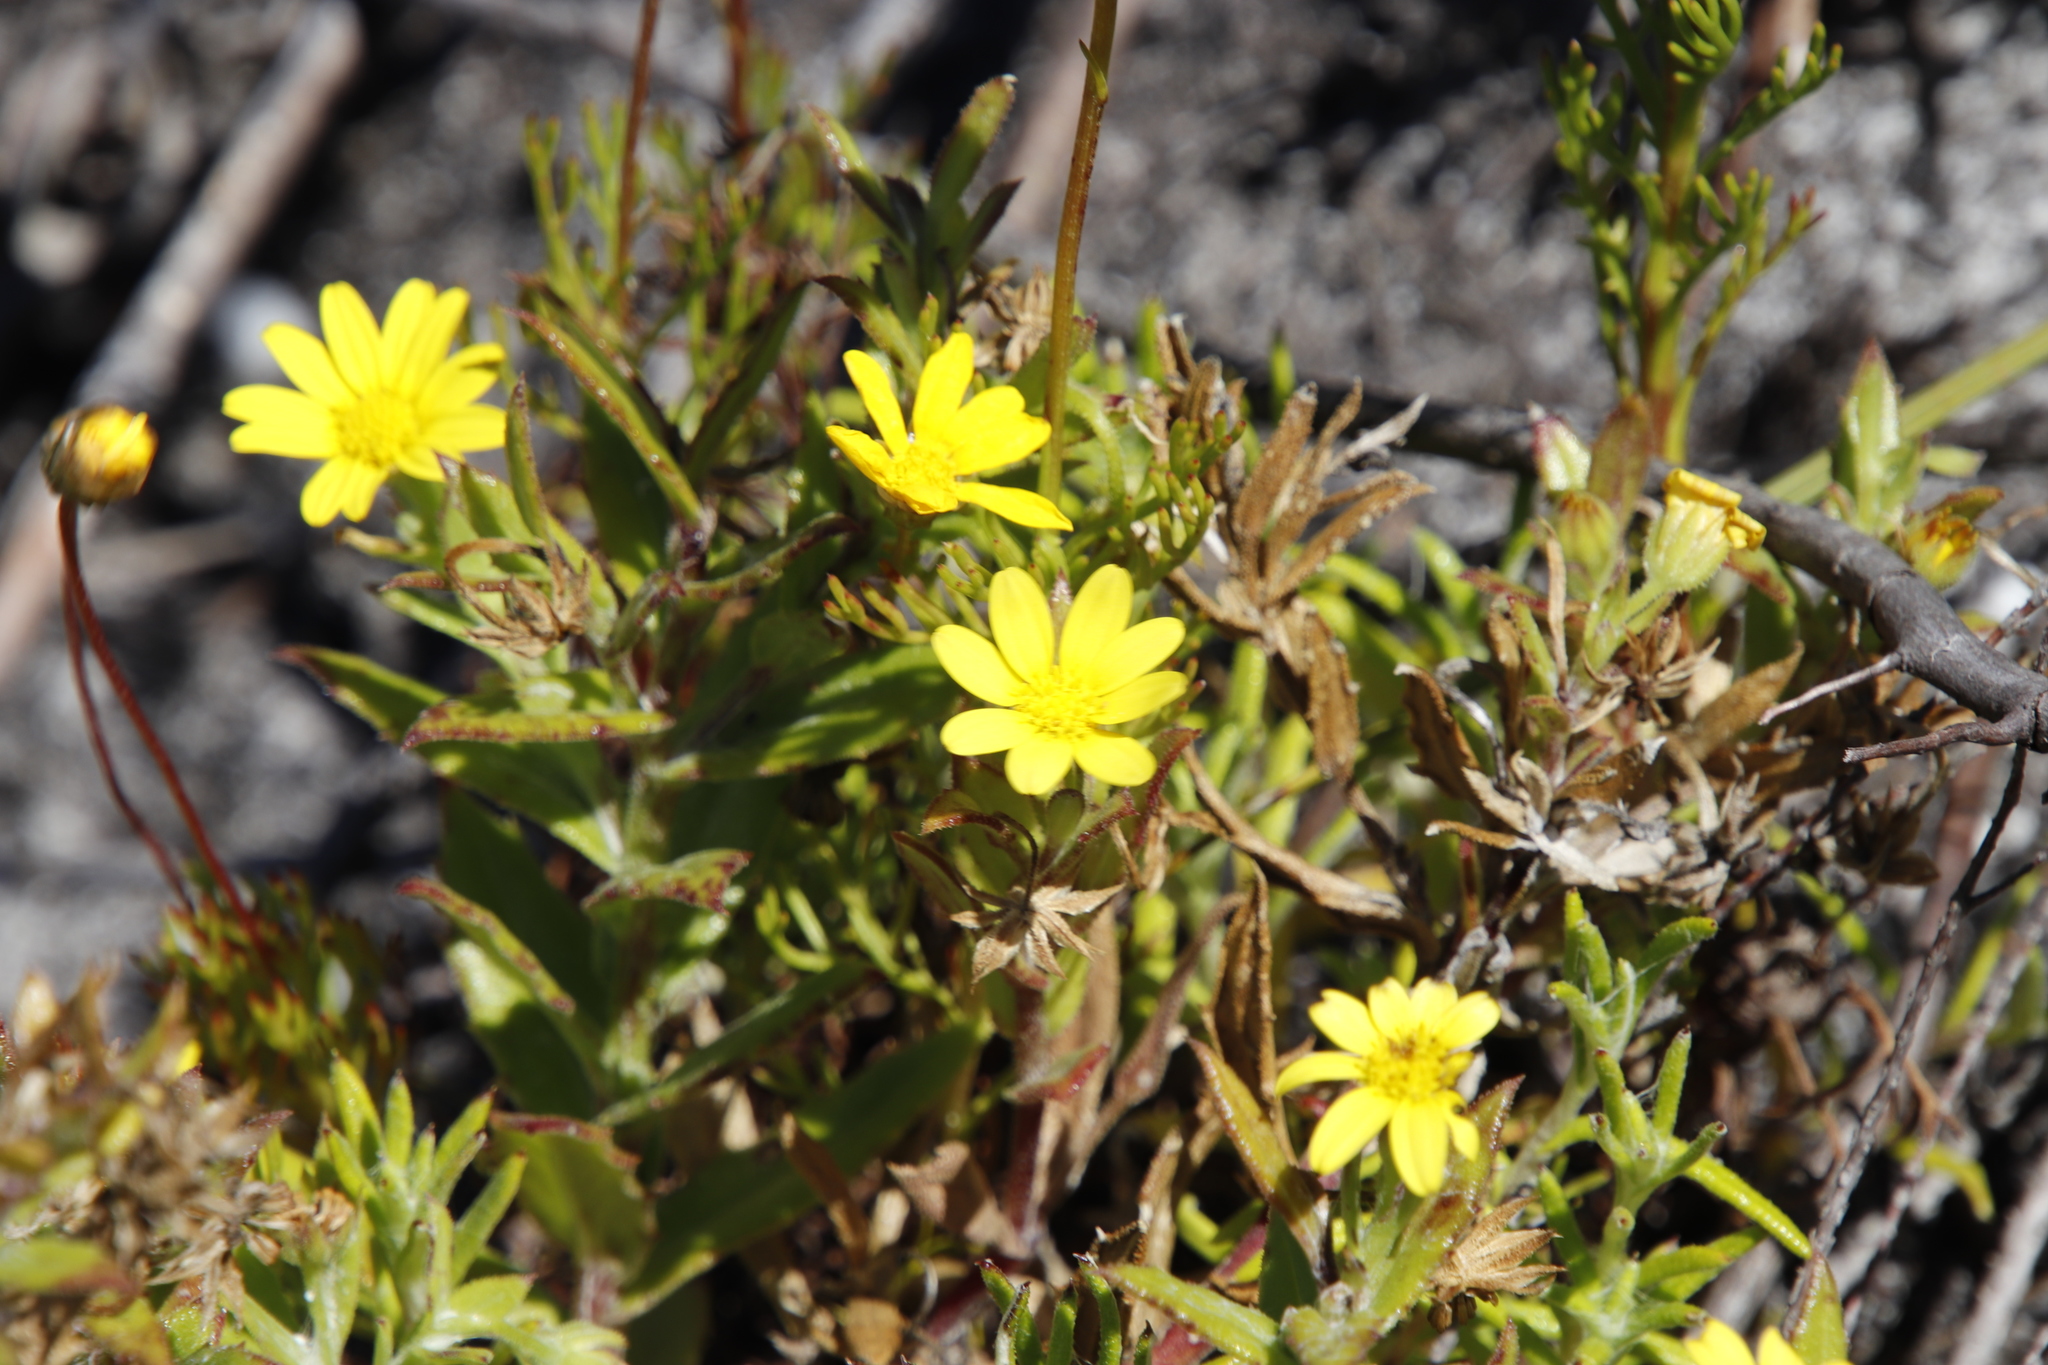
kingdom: Plantae
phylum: Tracheophyta
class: Magnoliopsida
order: Asterales
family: Asteraceae
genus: Osteospermum
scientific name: Osteospermum ilicifolium
